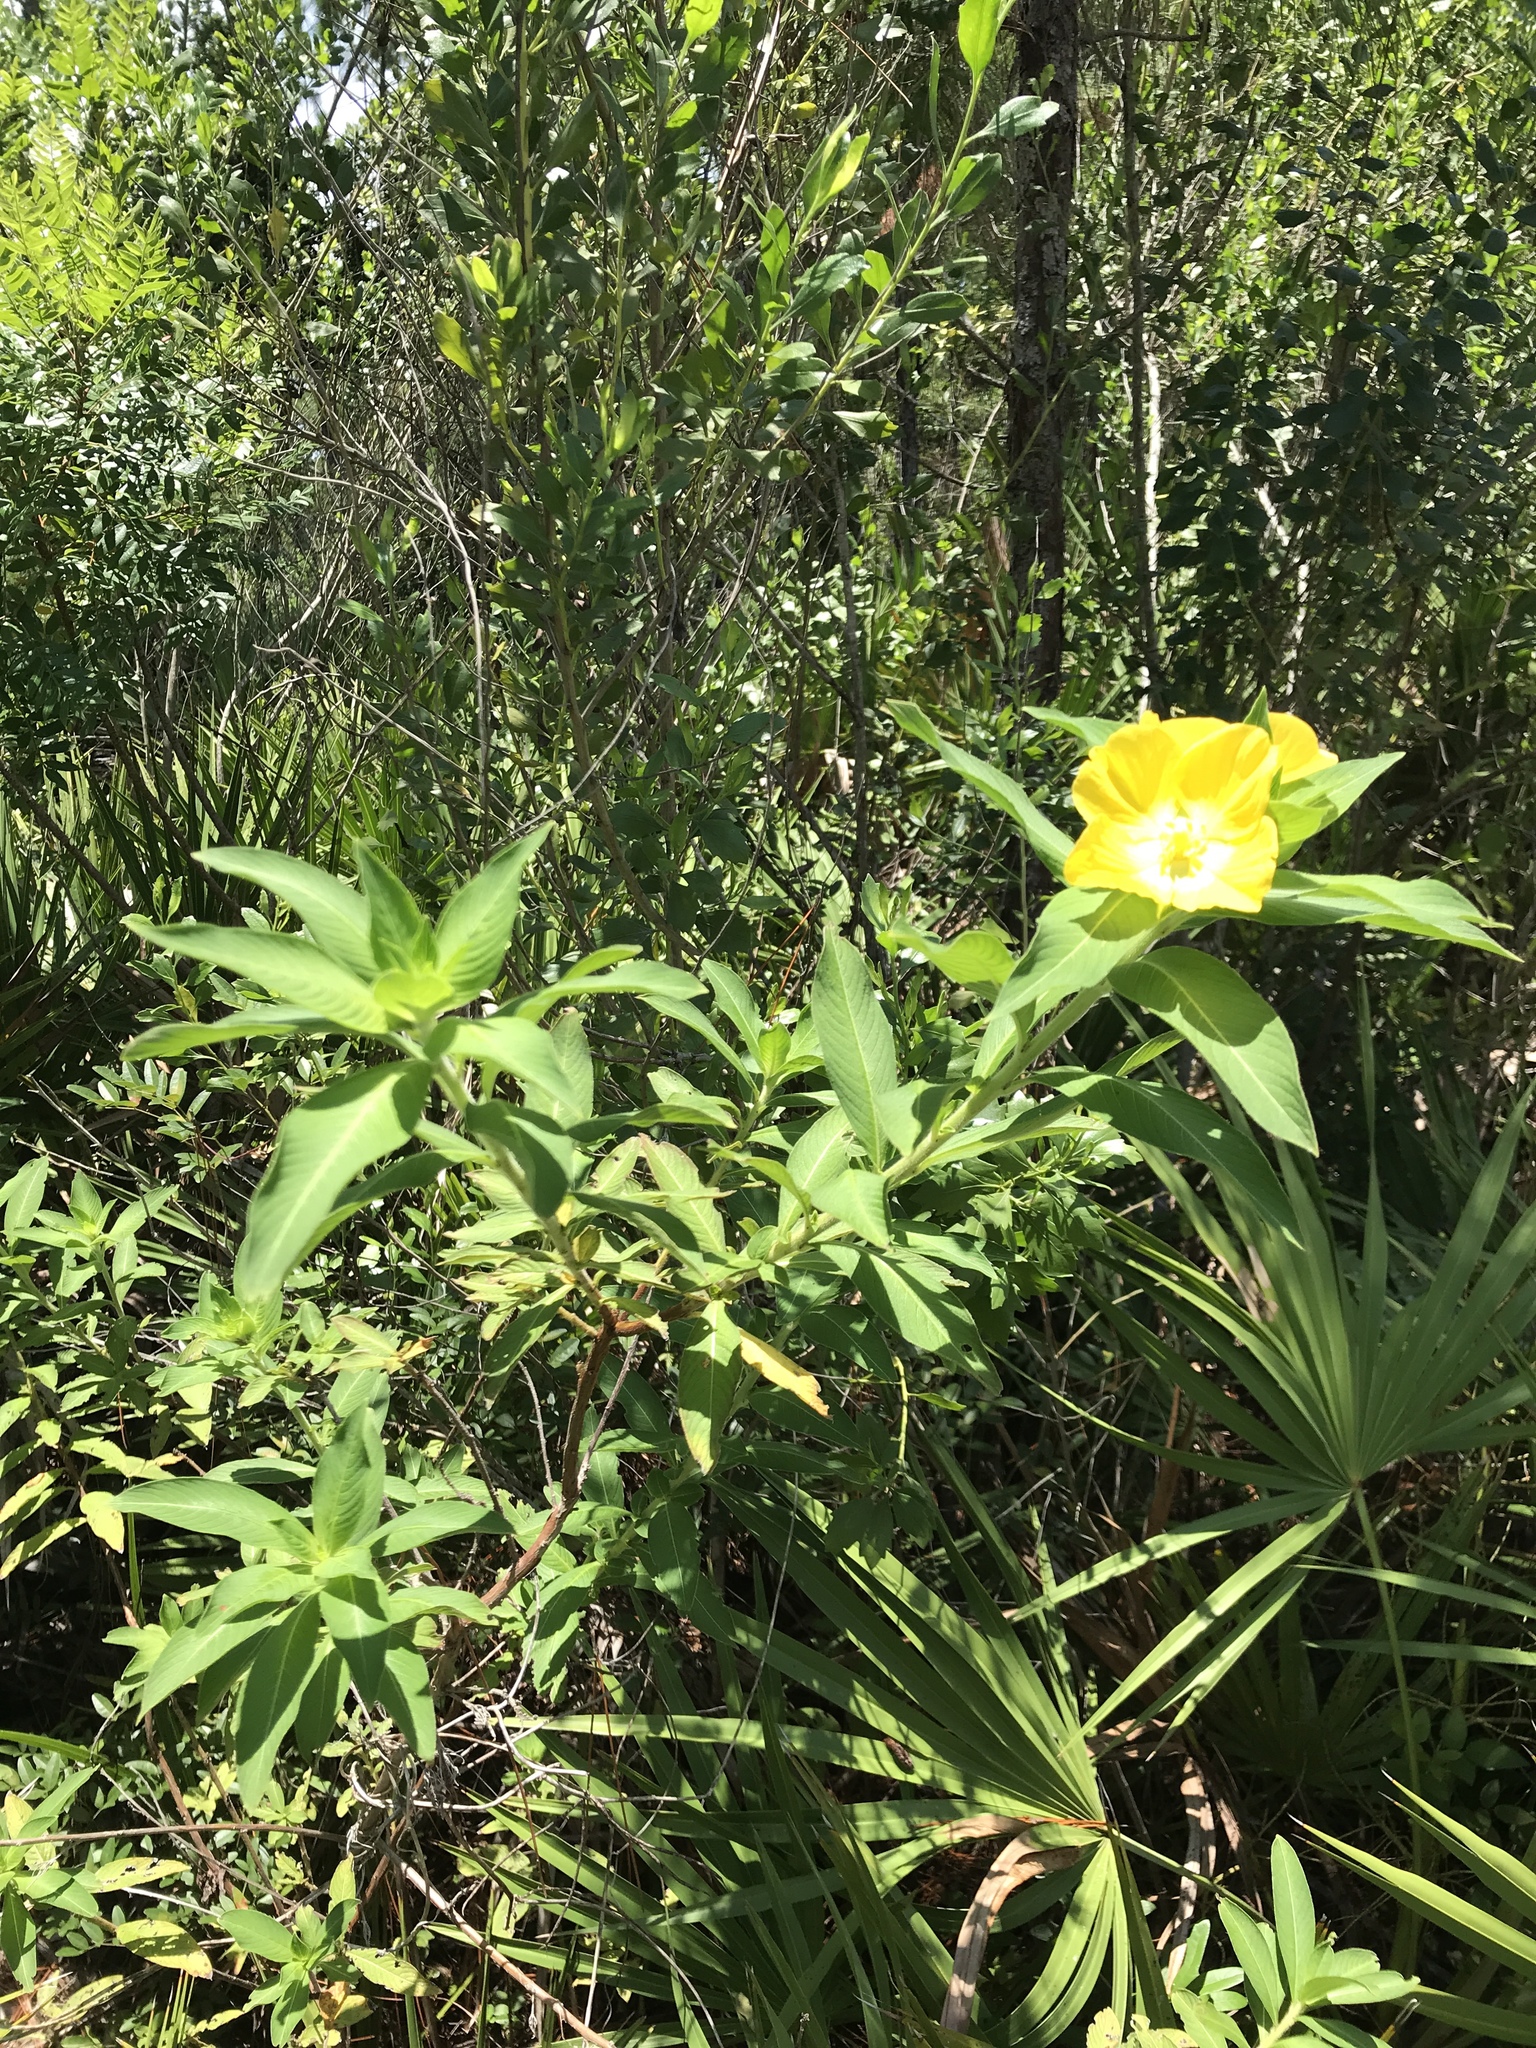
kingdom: Plantae
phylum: Tracheophyta
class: Magnoliopsida
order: Myrtales
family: Onagraceae
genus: Ludwigia
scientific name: Ludwigia peruviana
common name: Peruvian primrose-willow
